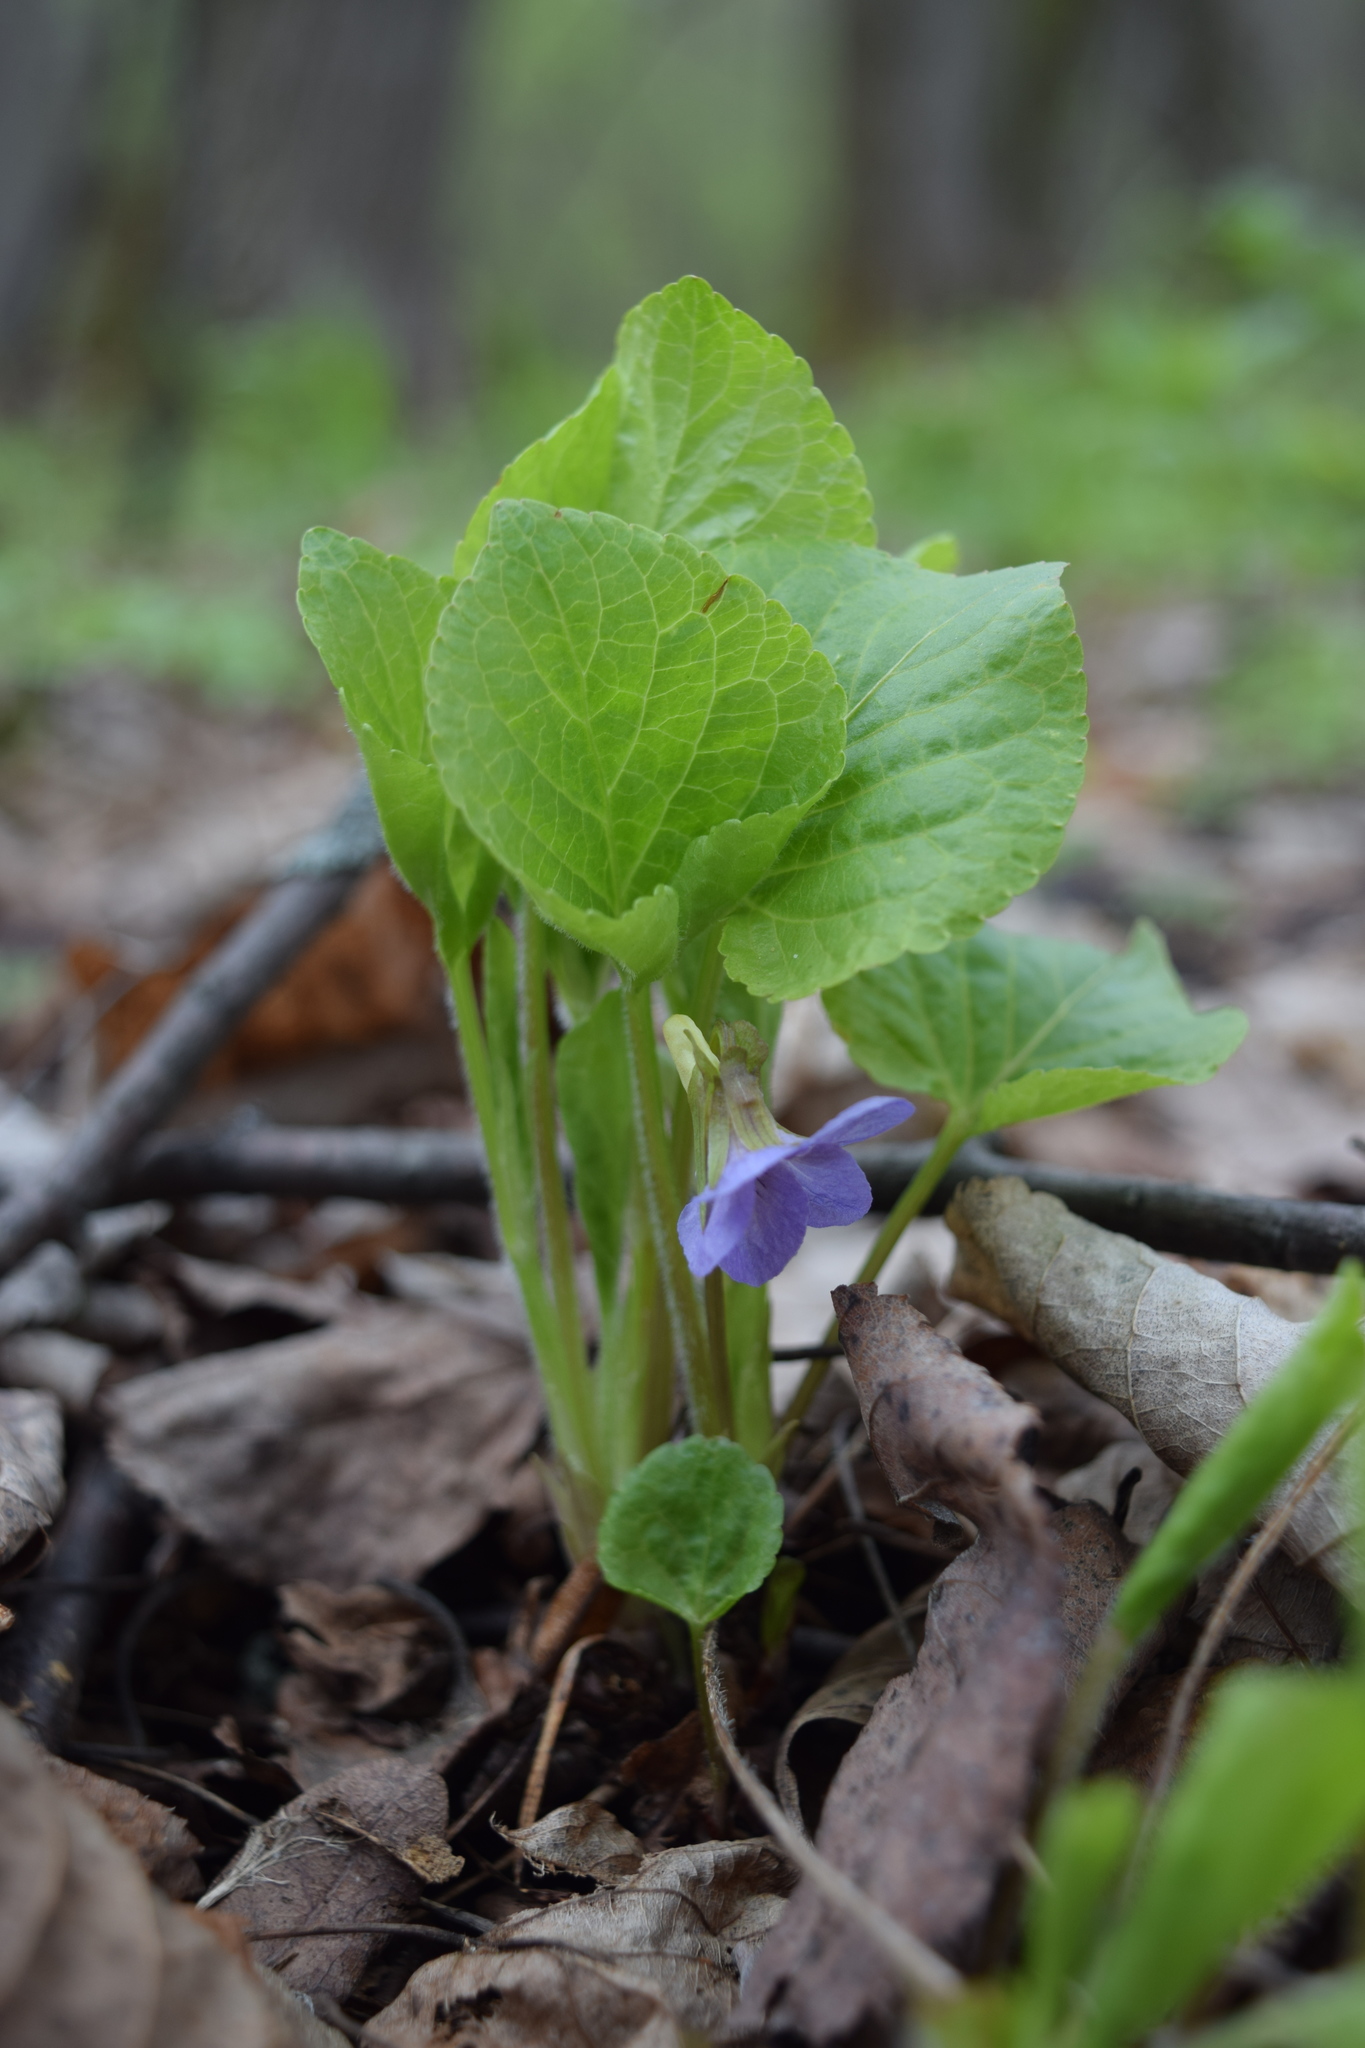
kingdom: Plantae
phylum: Tracheophyta
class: Magnoliopsida
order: Malpighiales
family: Violaceae
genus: Viola
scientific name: Viola mirabilis
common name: Wonder violet
